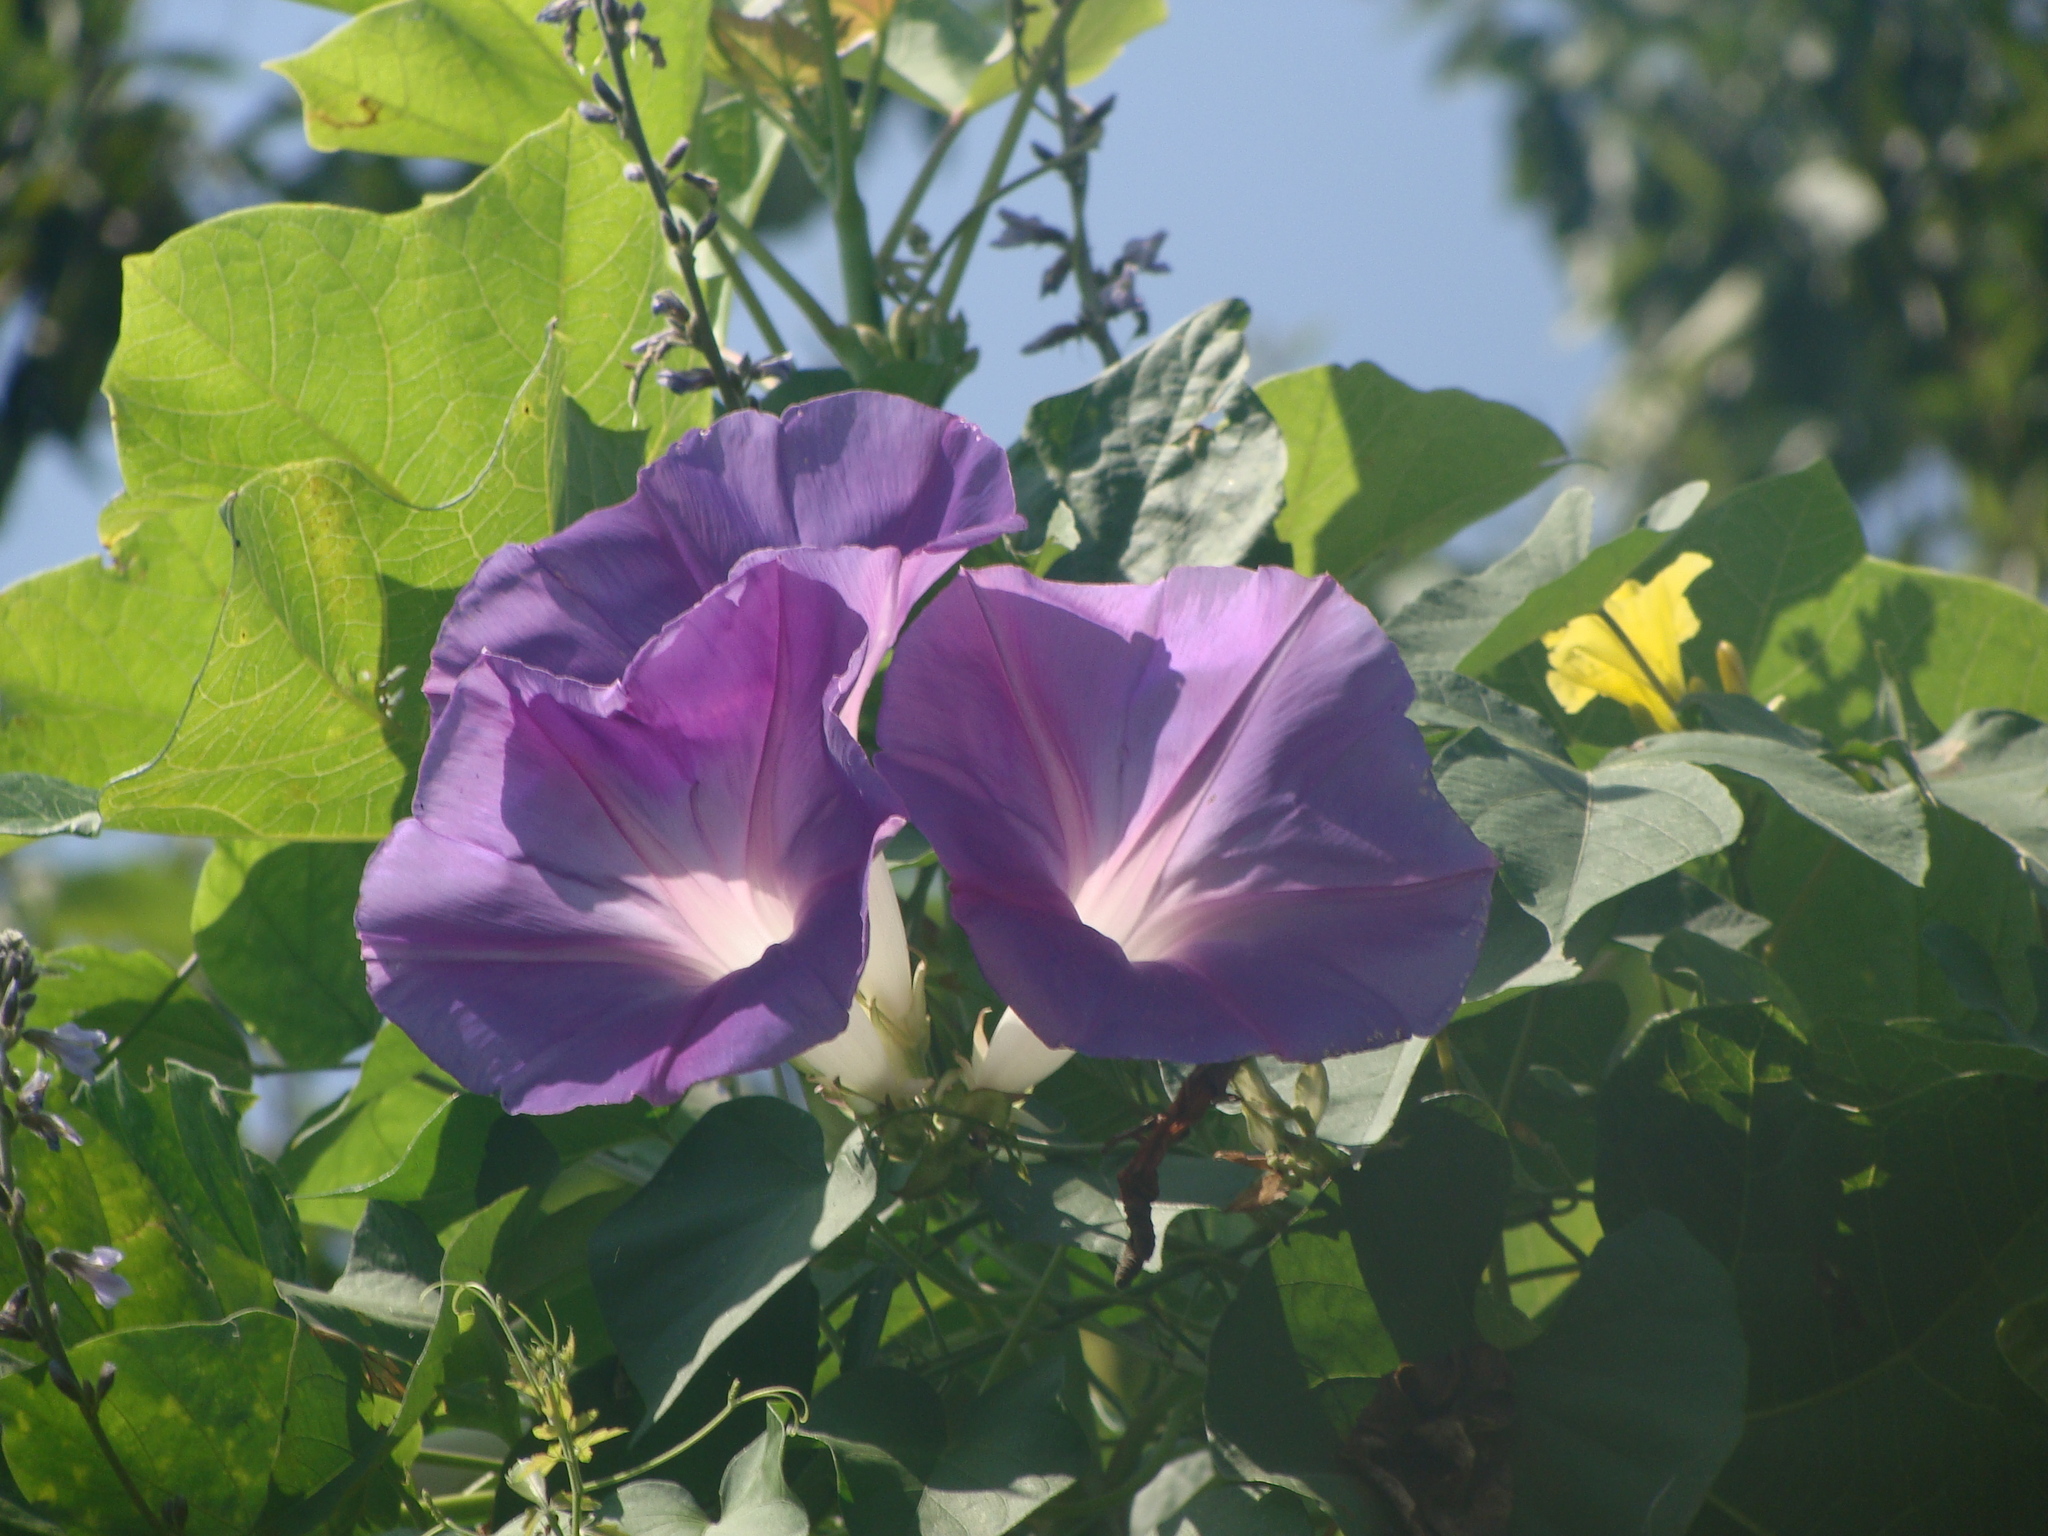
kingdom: Plantae
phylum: Tracheophyta
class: Magnoliopsida
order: Solanales
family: Convolvulaceae
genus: Ipomoea
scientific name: Ipomoea indica
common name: Blue dawnflower
